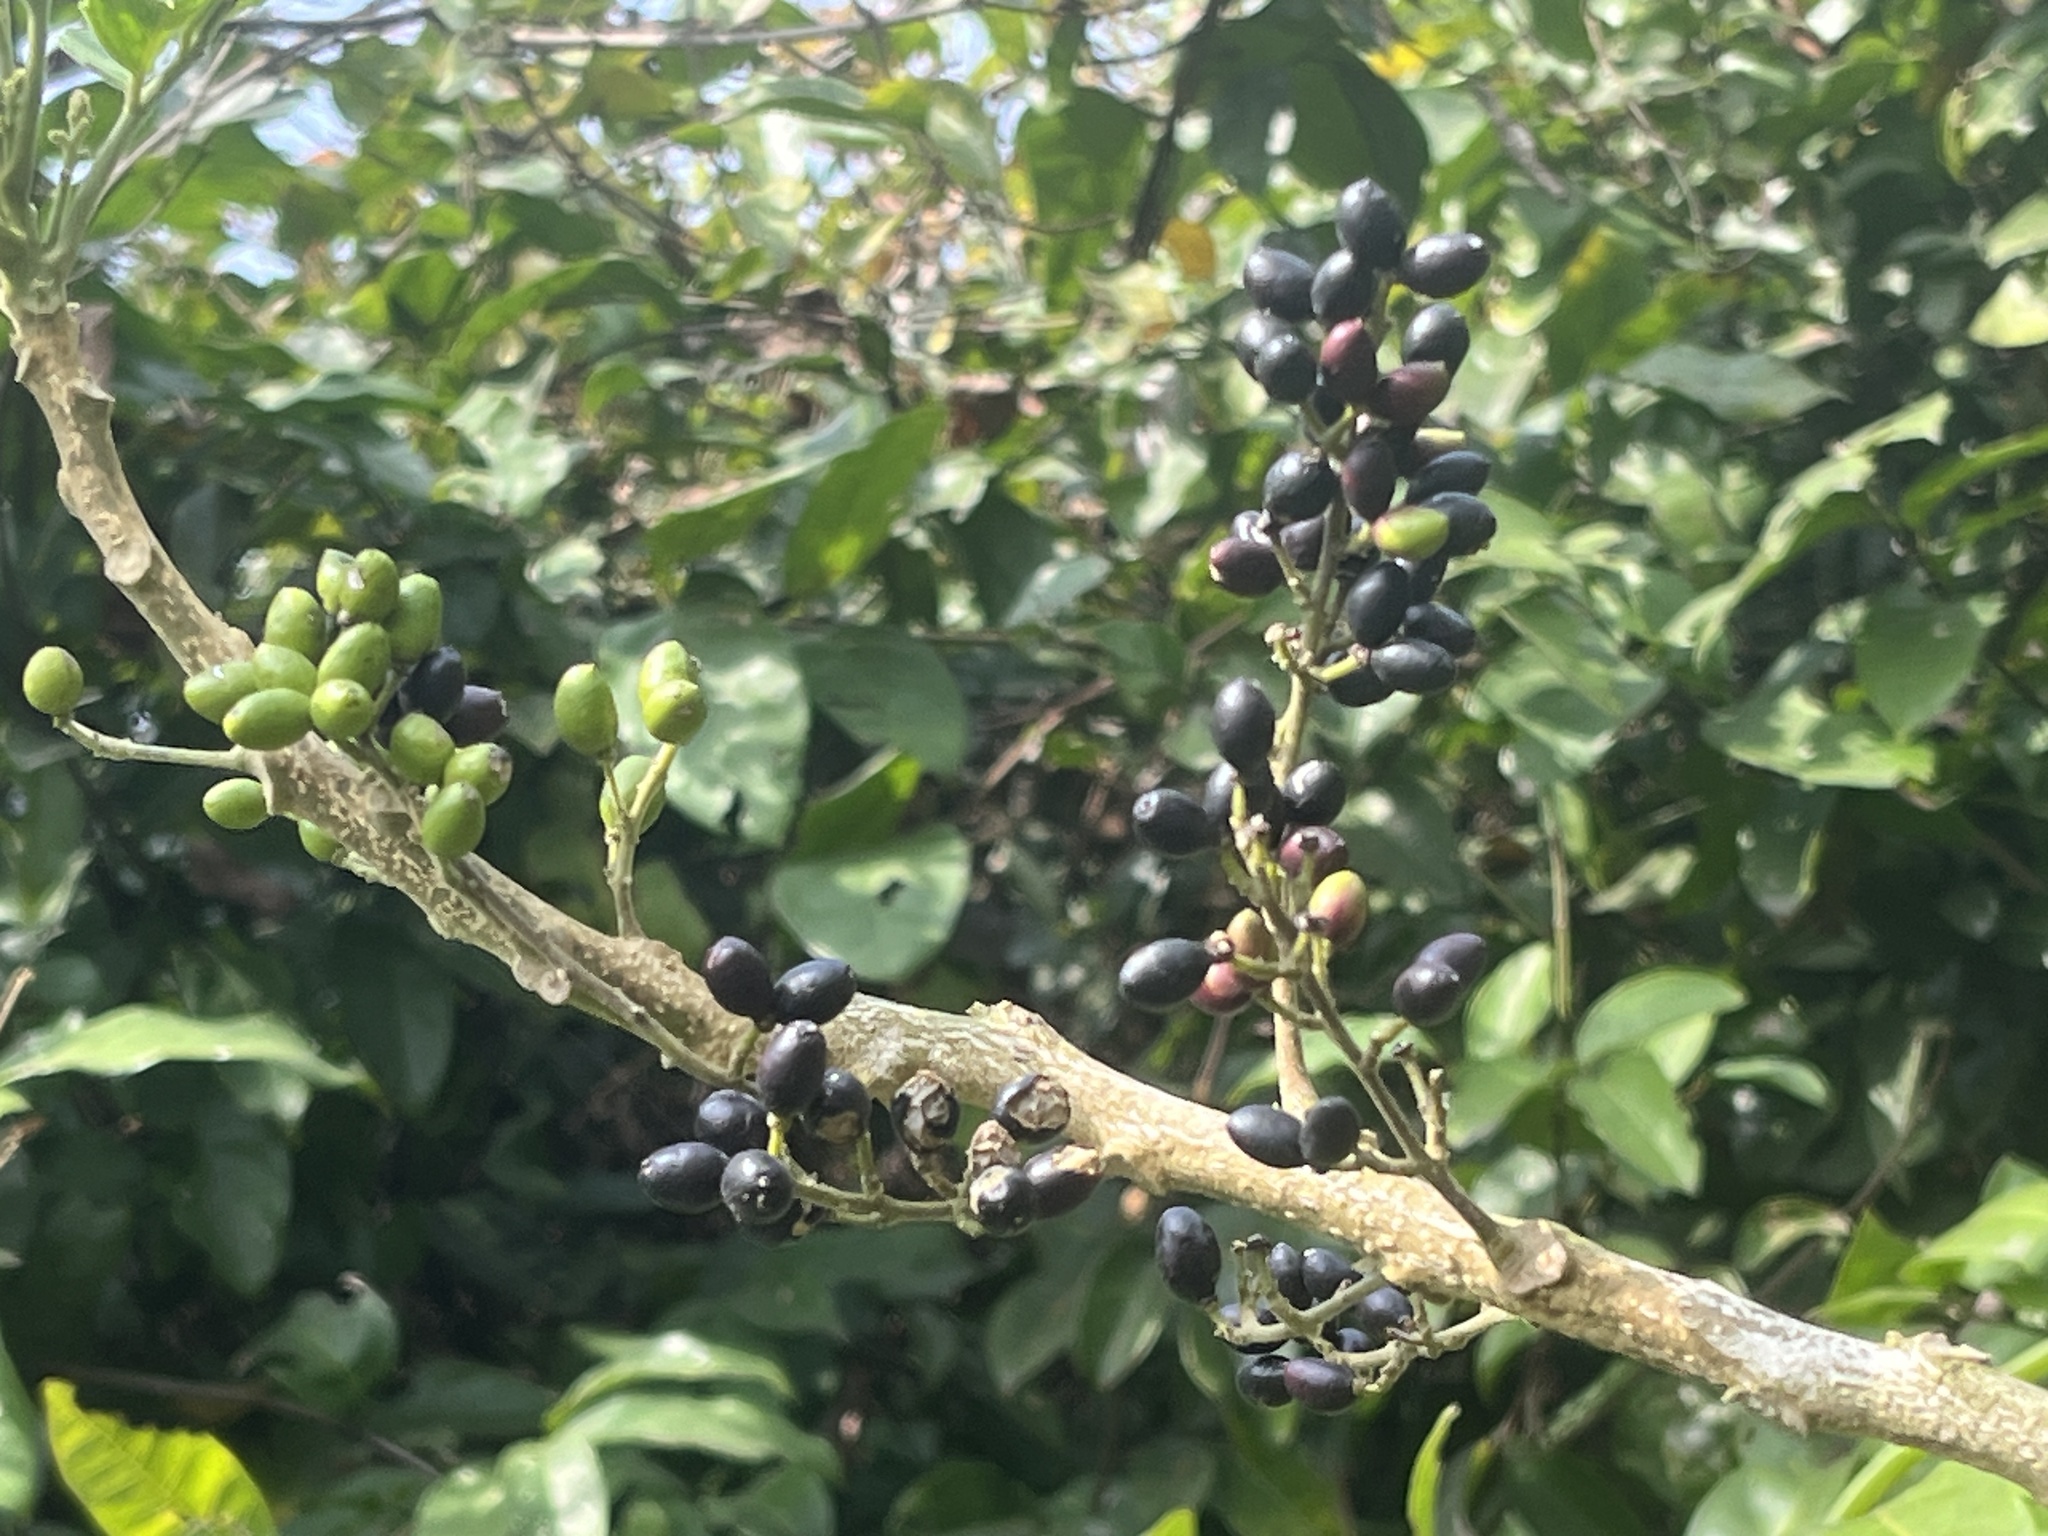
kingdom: Plantae
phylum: Tracheophyta
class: Magnoliopsida
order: Sapindales
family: Simaroubaceae
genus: Brucea
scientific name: Brucea javanica
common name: Macassar kernels
